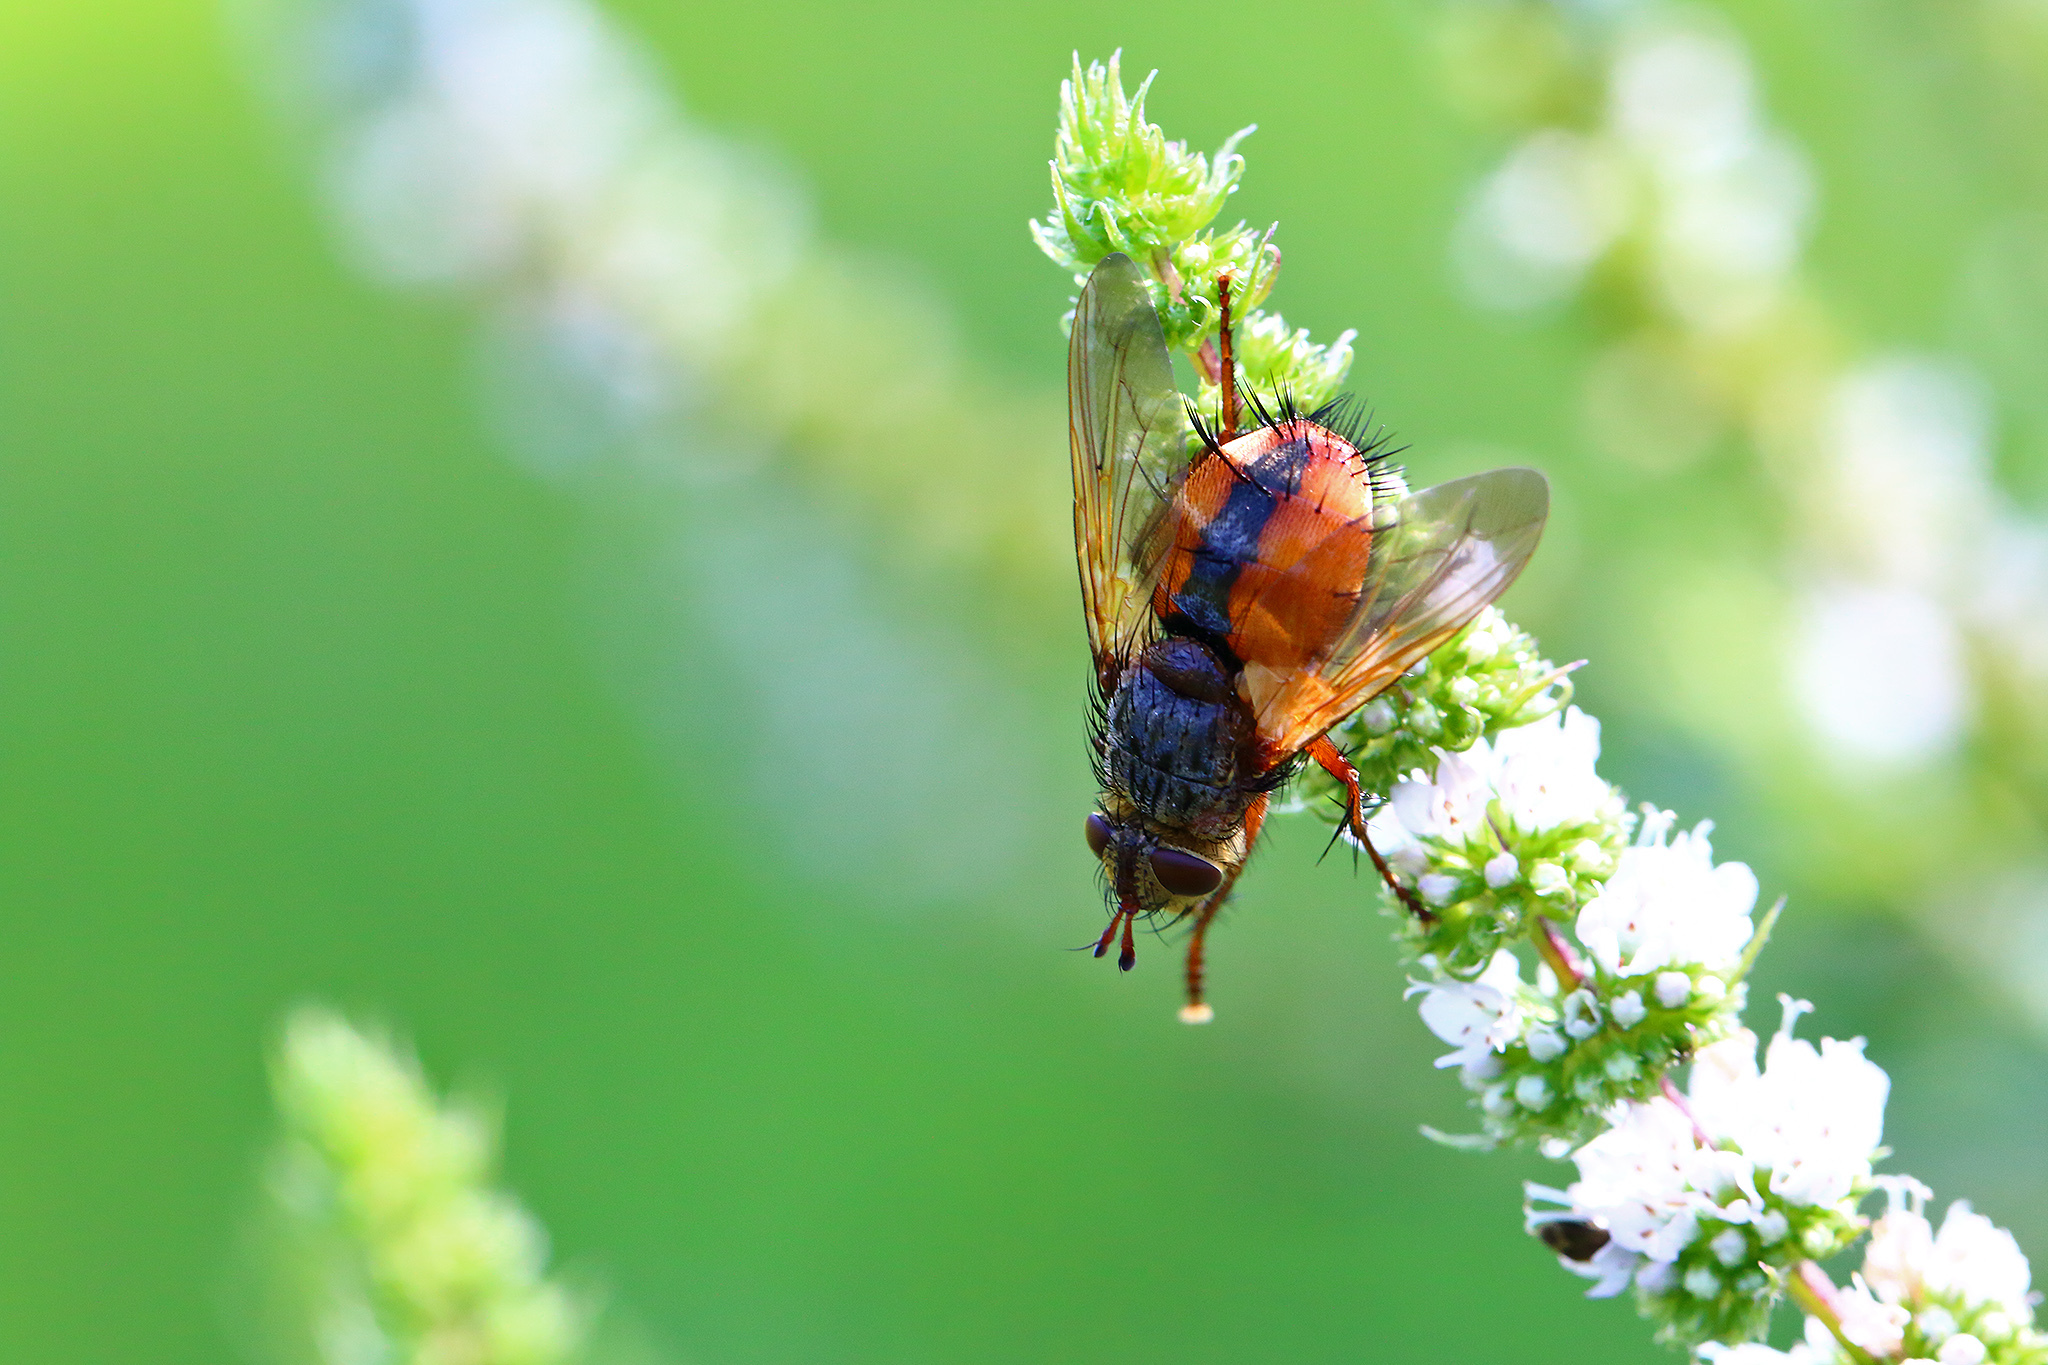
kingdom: Animalia
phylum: Arthropoda
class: Insecta
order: Diptera
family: Tachinidae
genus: Tachina
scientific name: Tachina fera
